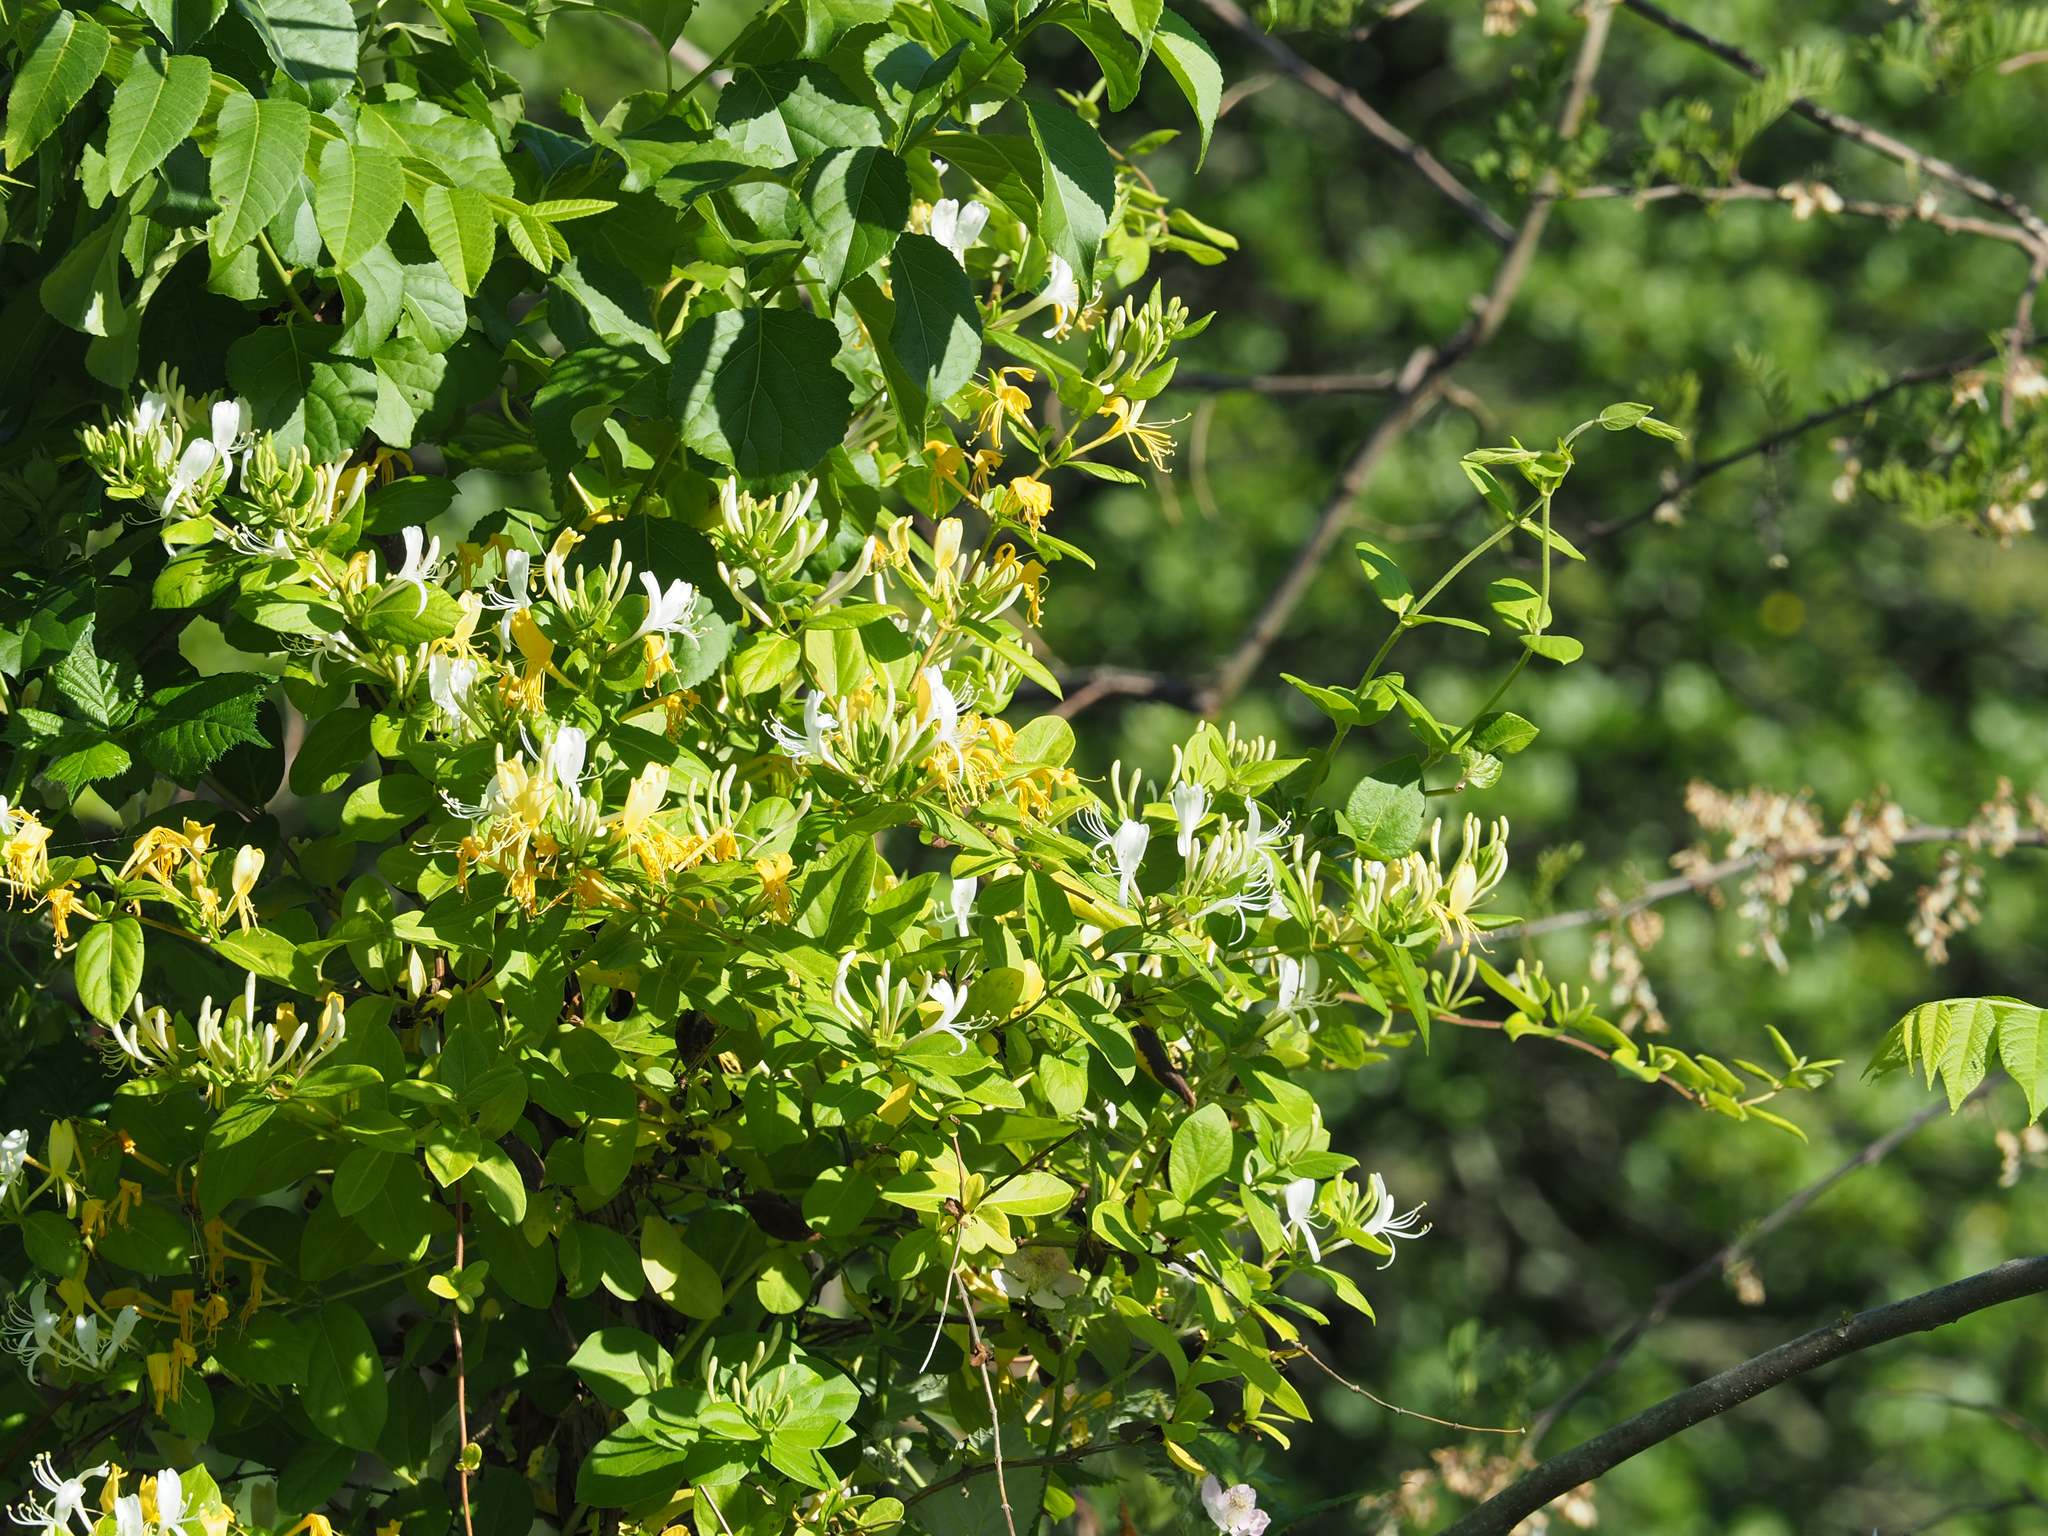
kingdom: Plantae
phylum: Tracheophyta
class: Magnoliopsida
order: Dipsacales
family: Caprifoliaceae
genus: Lonicera
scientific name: Lonicera japonica
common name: Japanese honeysuckle
